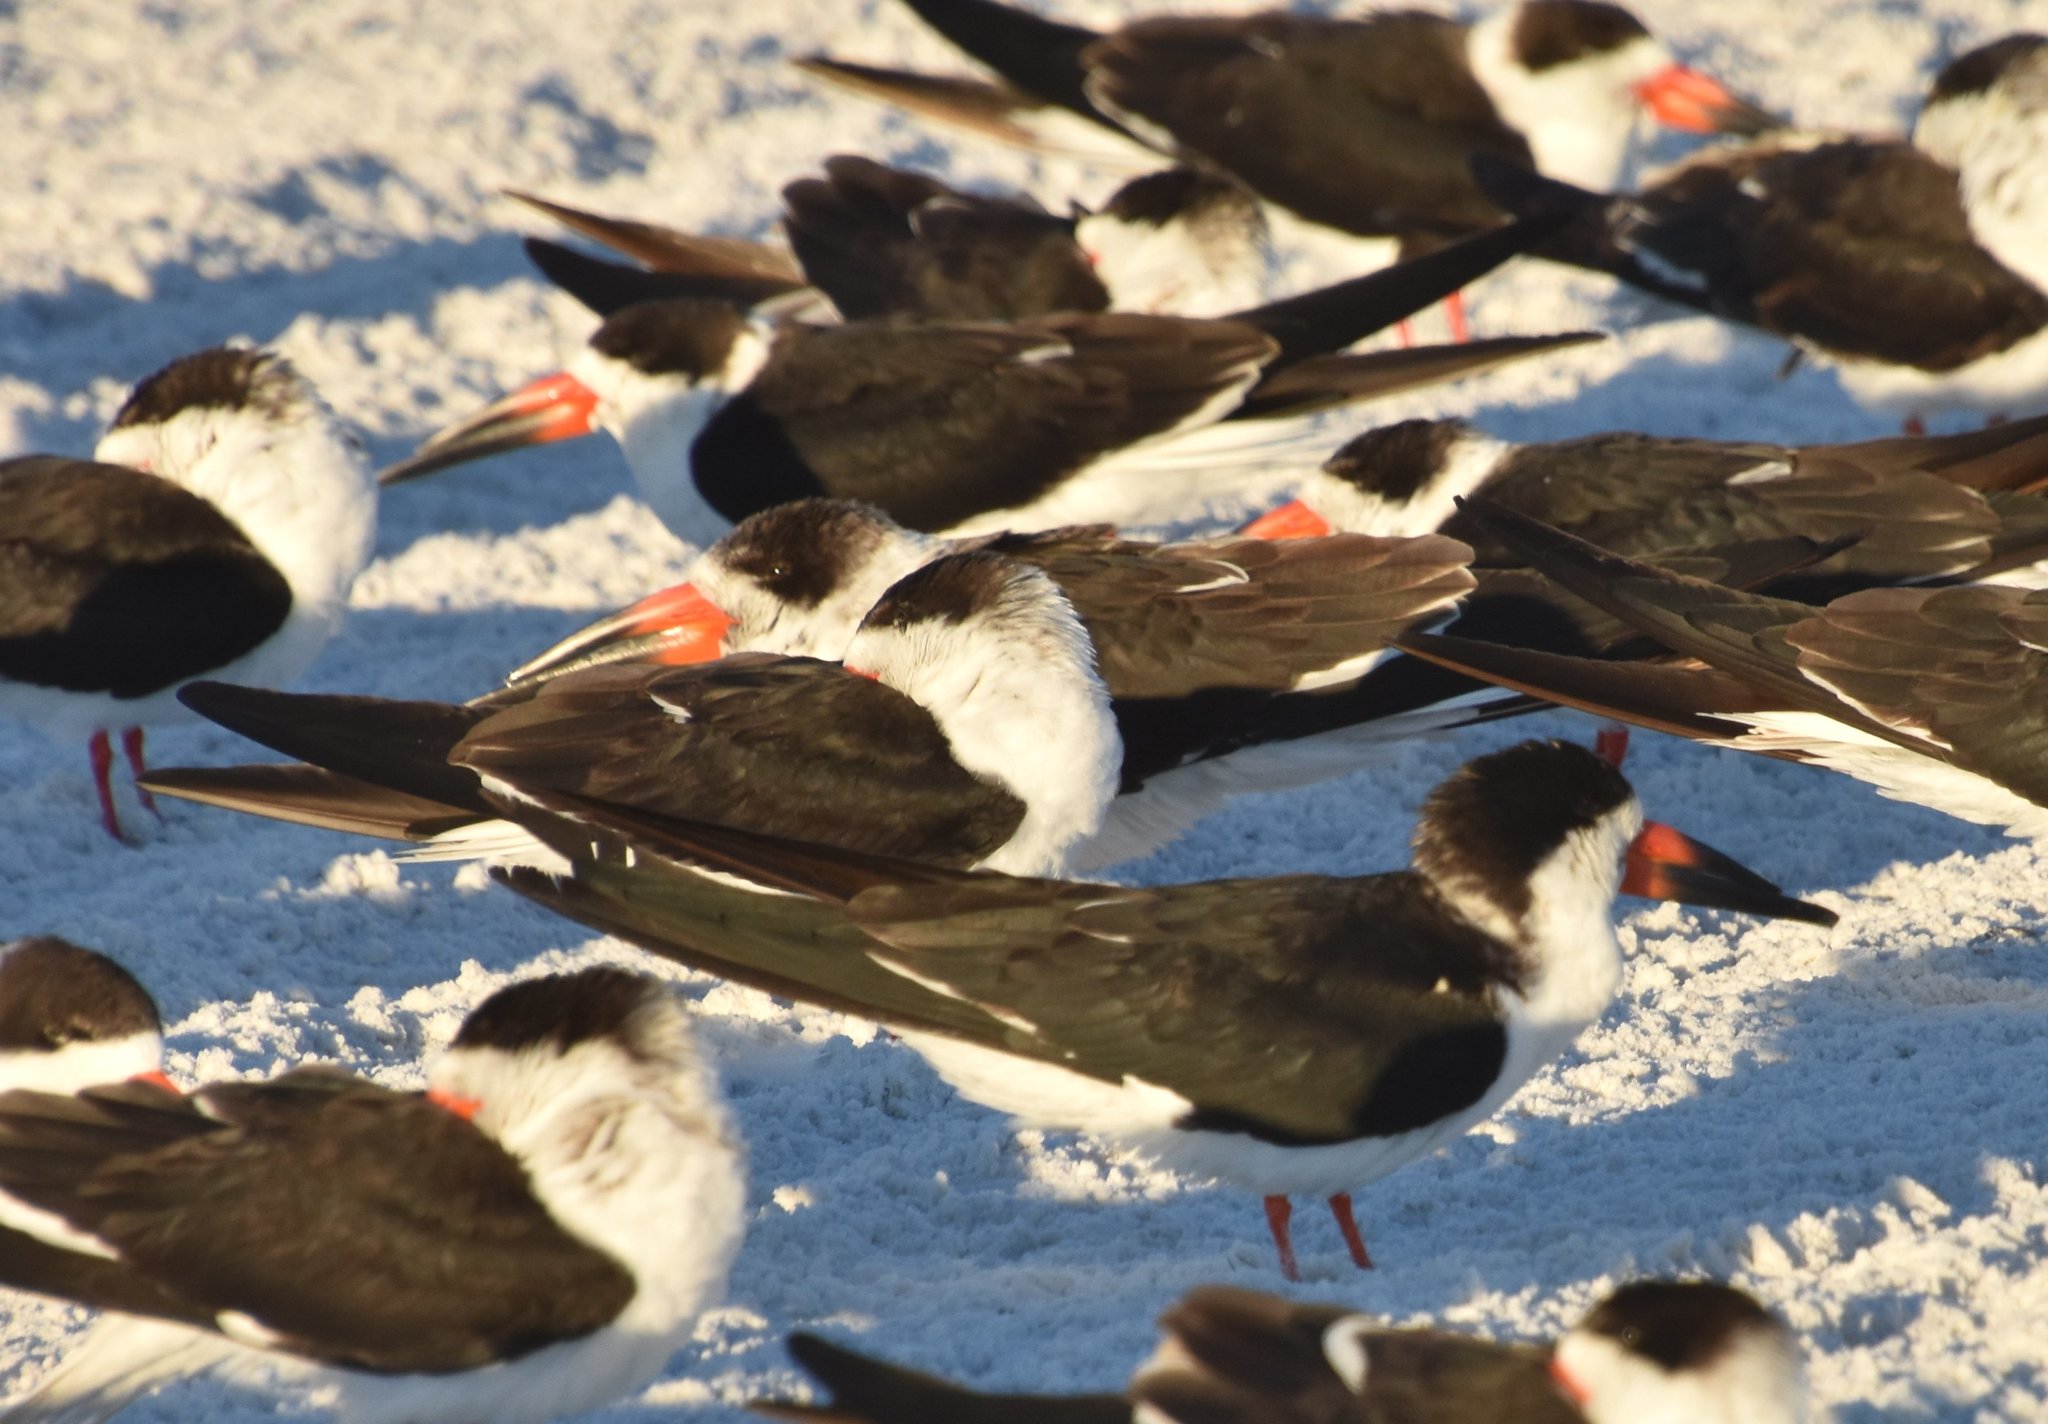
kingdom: Animalia
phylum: Chordata
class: Aves
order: Charadriiformes
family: Laridae
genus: Rynchops
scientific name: Rynchops niger
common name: Black skimmer
